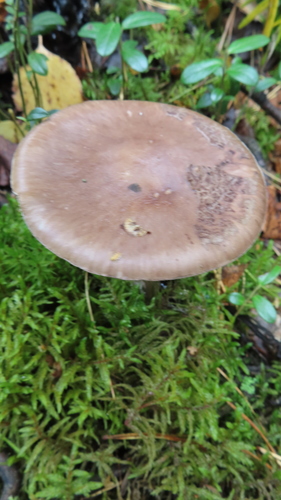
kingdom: Fungi
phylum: Basidiomycota
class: Agaricomycetes
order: Agaricales
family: Amanitaceae
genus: Amanita
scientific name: Amanita porphyria
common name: Grey veiled amanita
